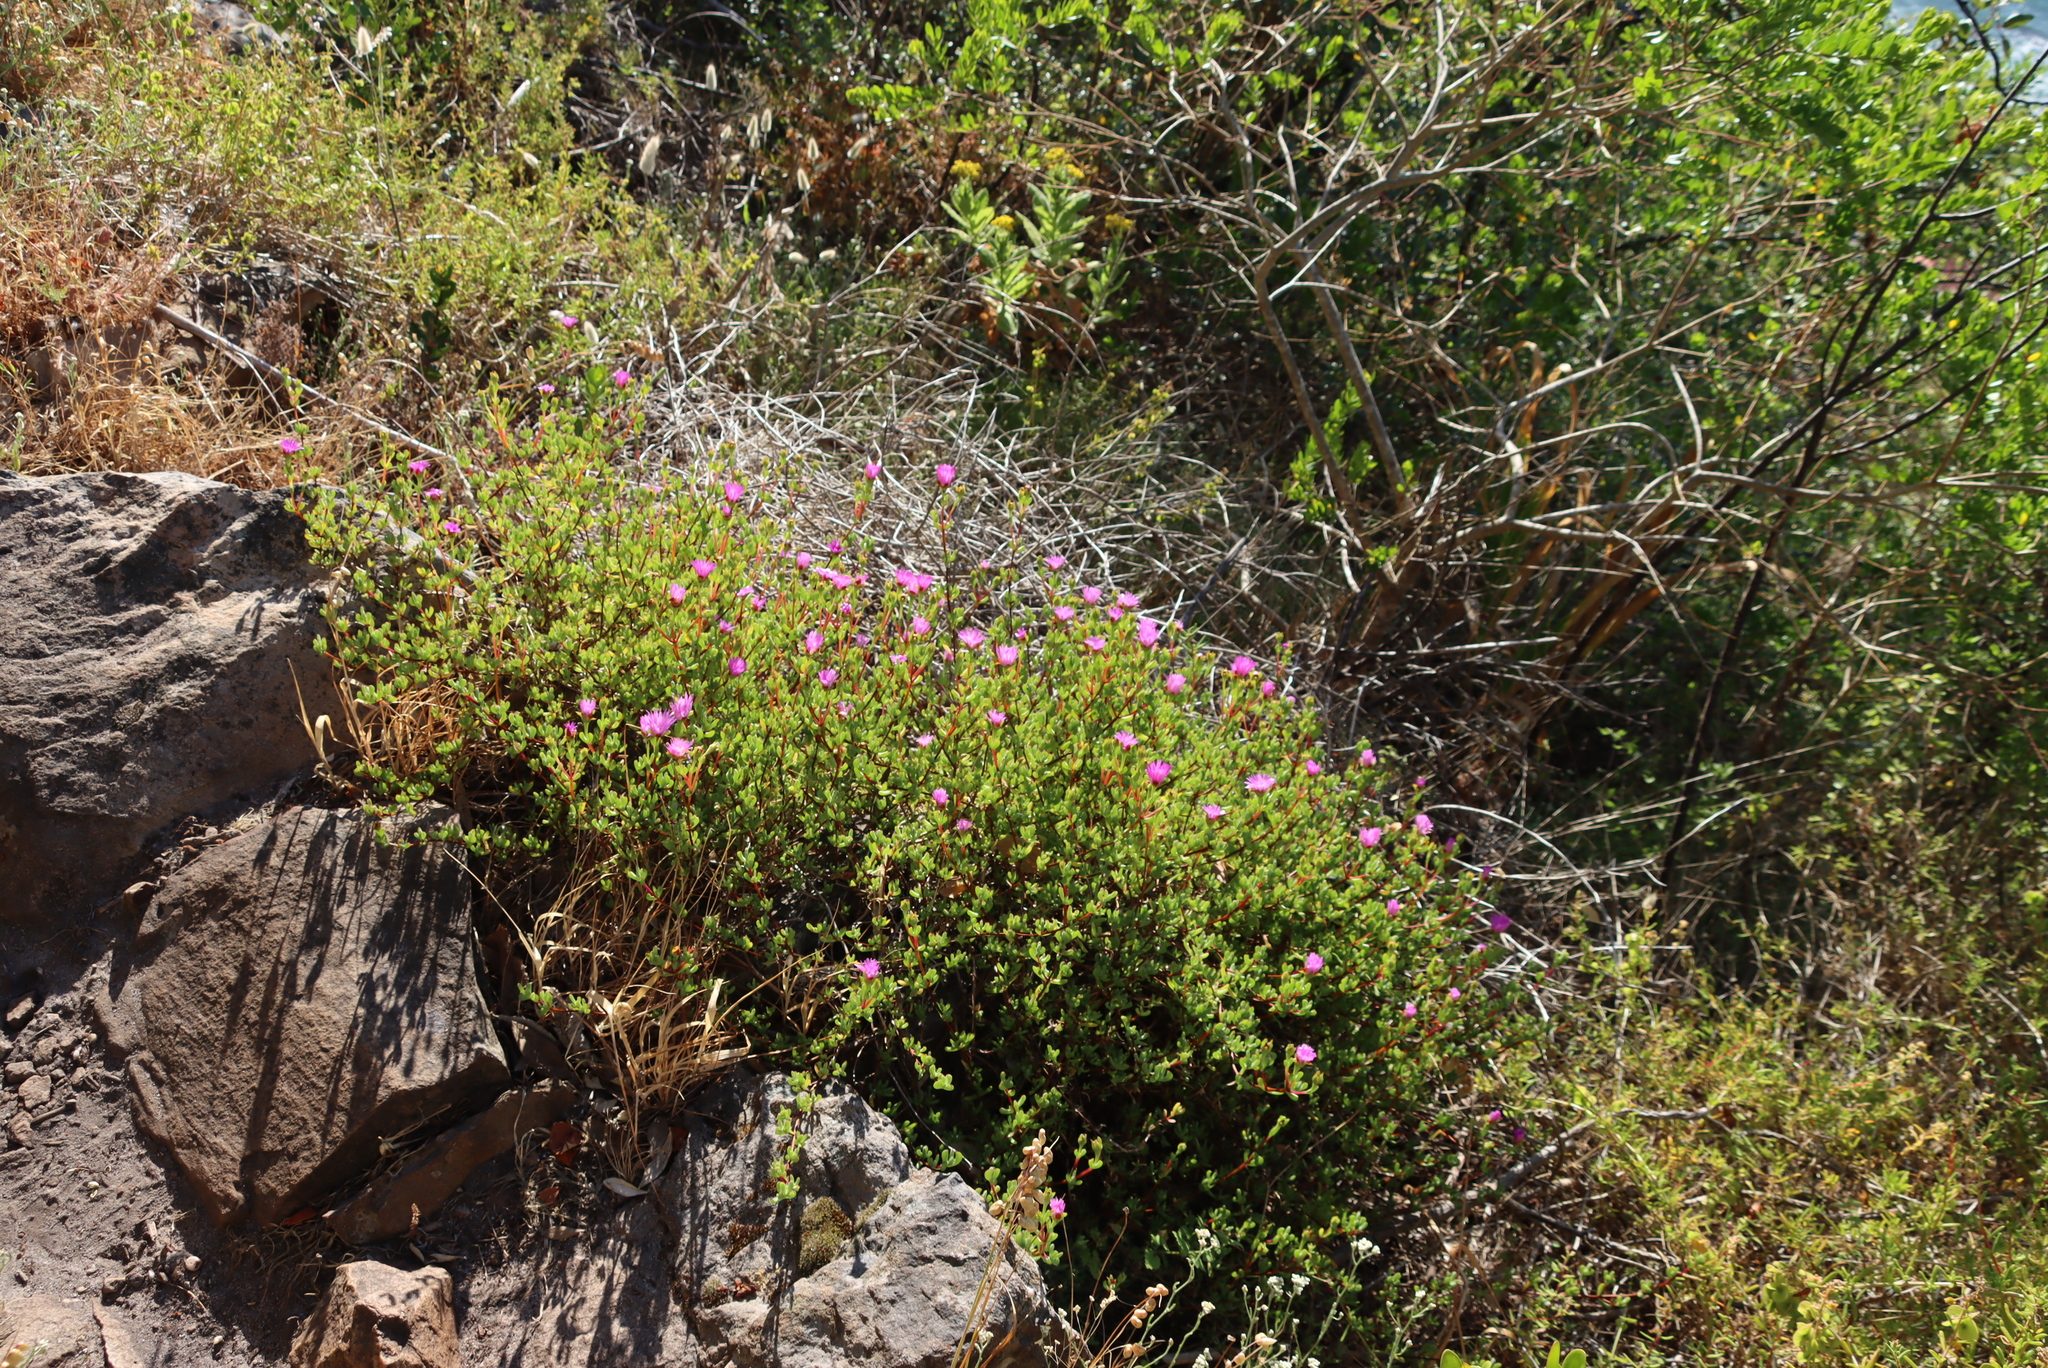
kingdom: Plantae
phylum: Tracheophyta
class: Magnoliopsida
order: Caryophyllales
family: Aizoaceae
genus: Oscularia
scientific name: Oscularia falciformis
